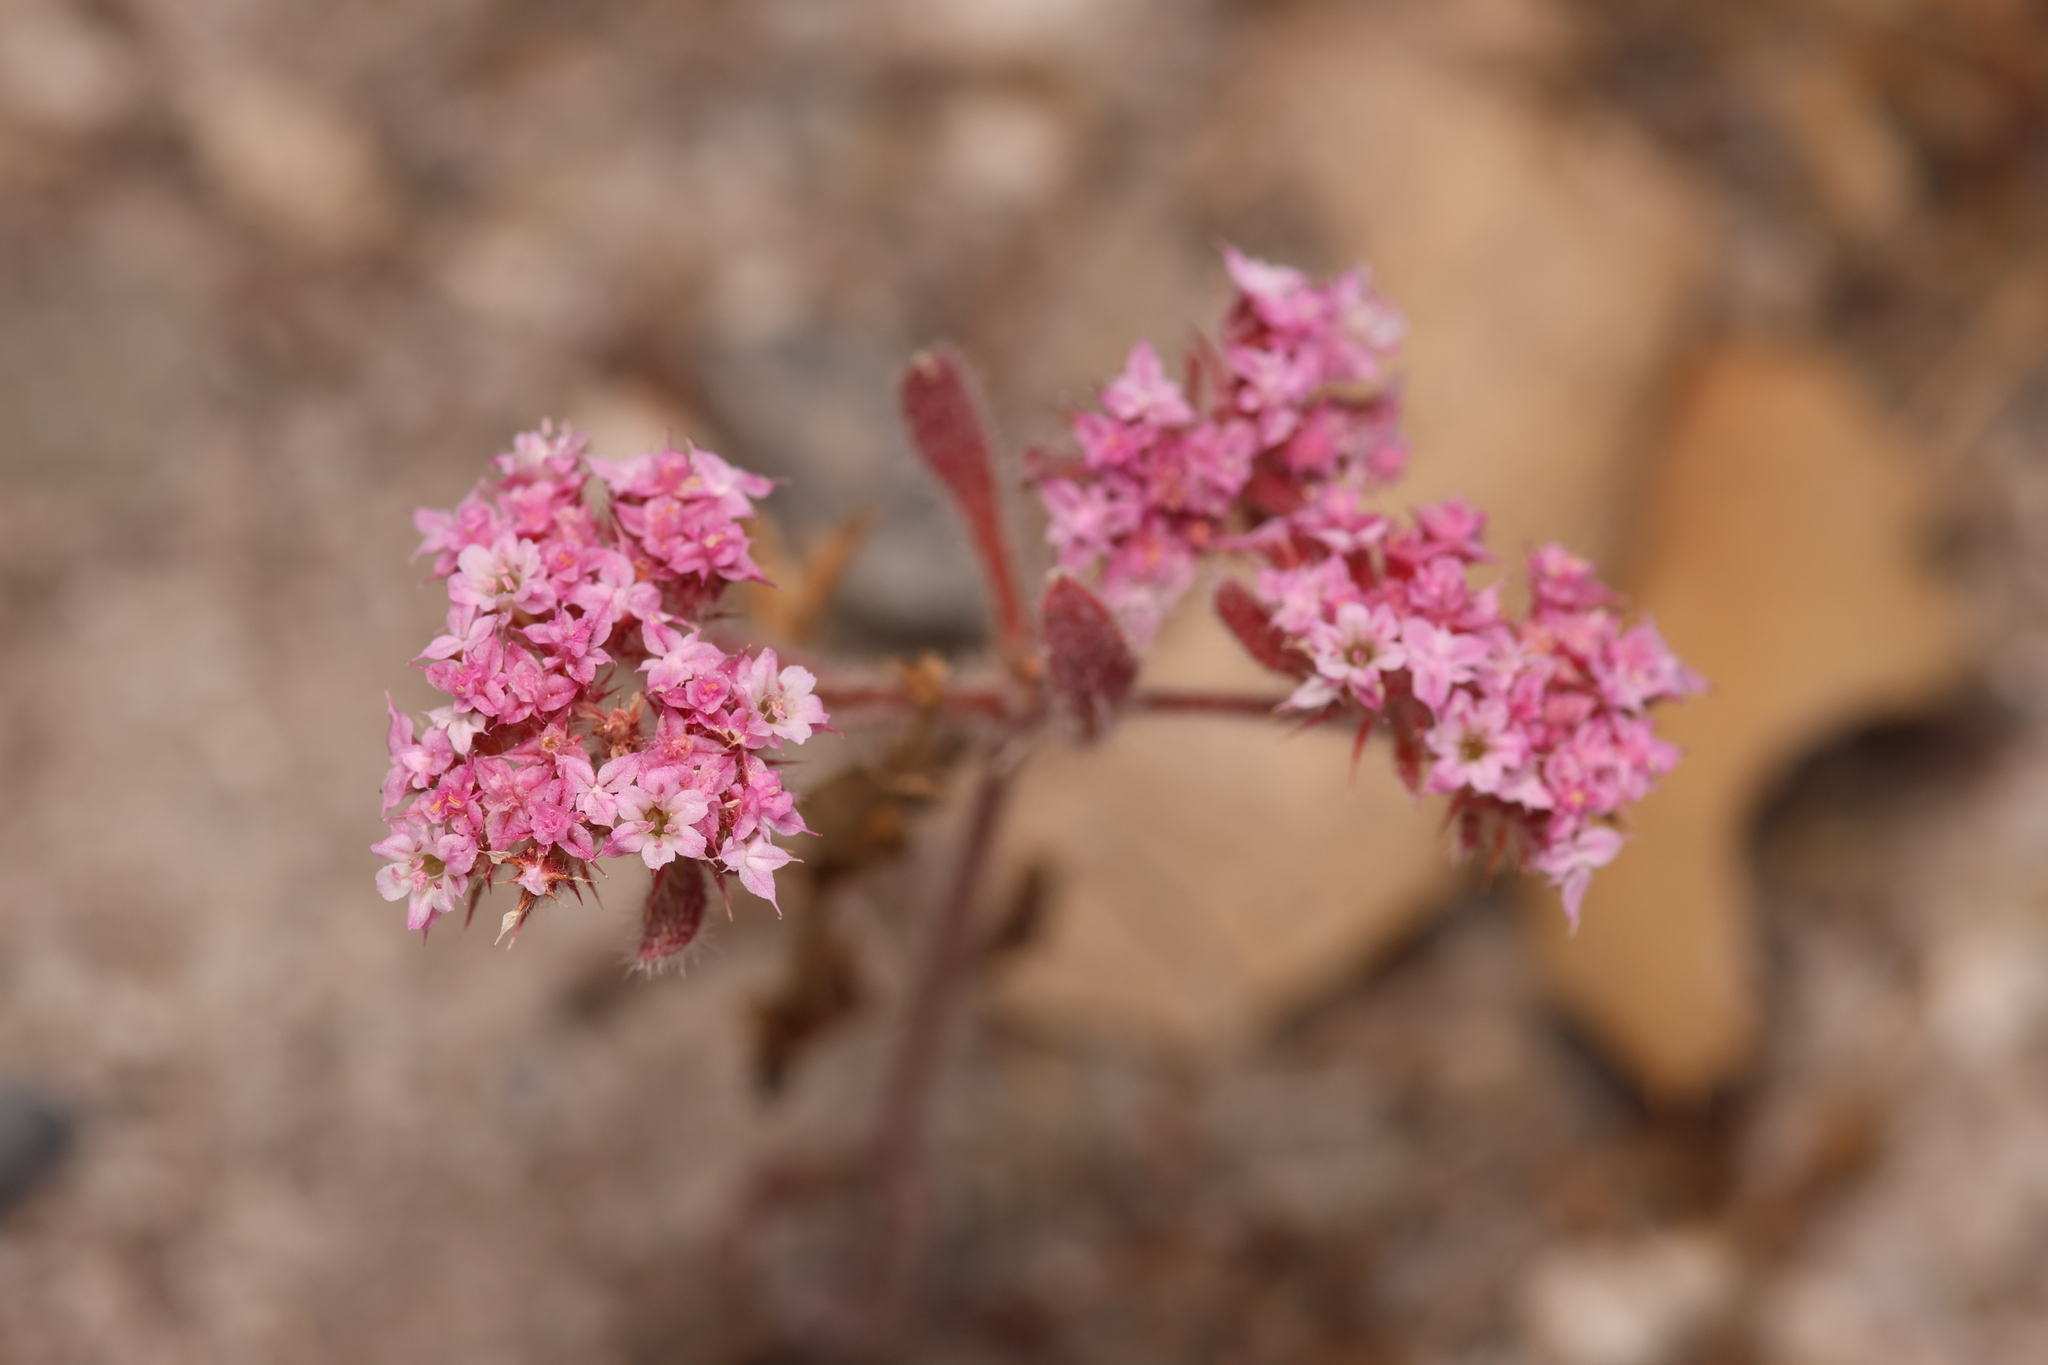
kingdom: Plantae
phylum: Tracheophyta
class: Magnoliopsida
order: Caryophyllales
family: Polygonaceae
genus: Chorizanthe
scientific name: Chorizanthe pungens
